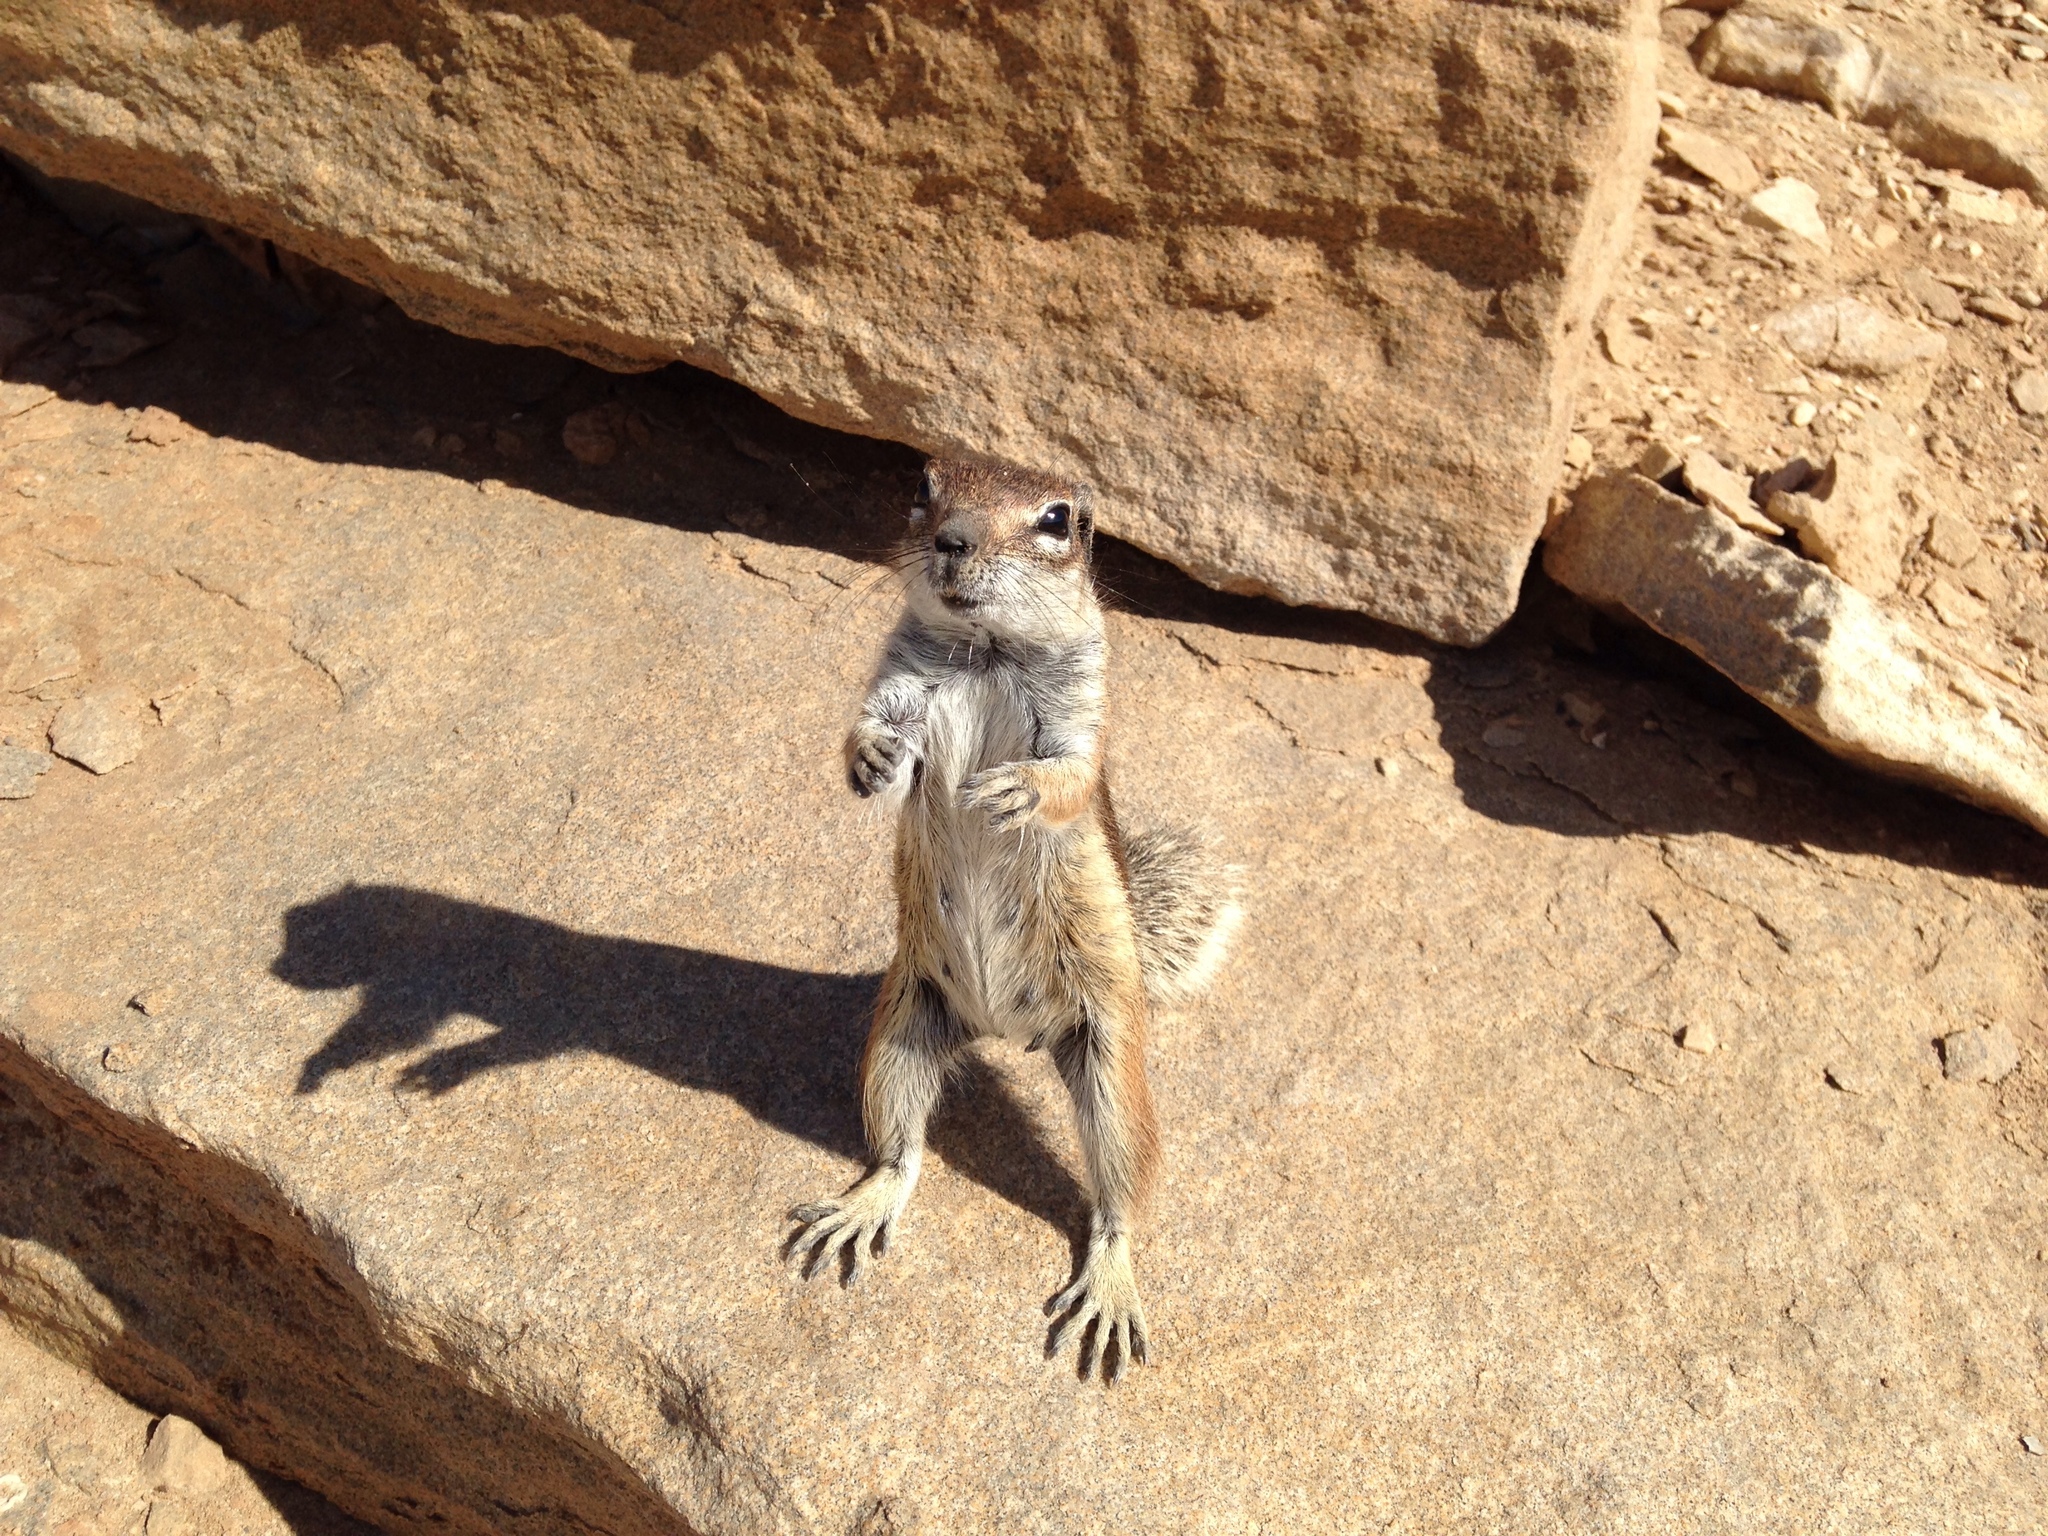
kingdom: Animalia
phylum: Chordata
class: Mammalia
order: Rodentia
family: Sciuridae
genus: Atlantoxerus
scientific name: Atlantoxerus getulus
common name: Barbary ground squirrel
